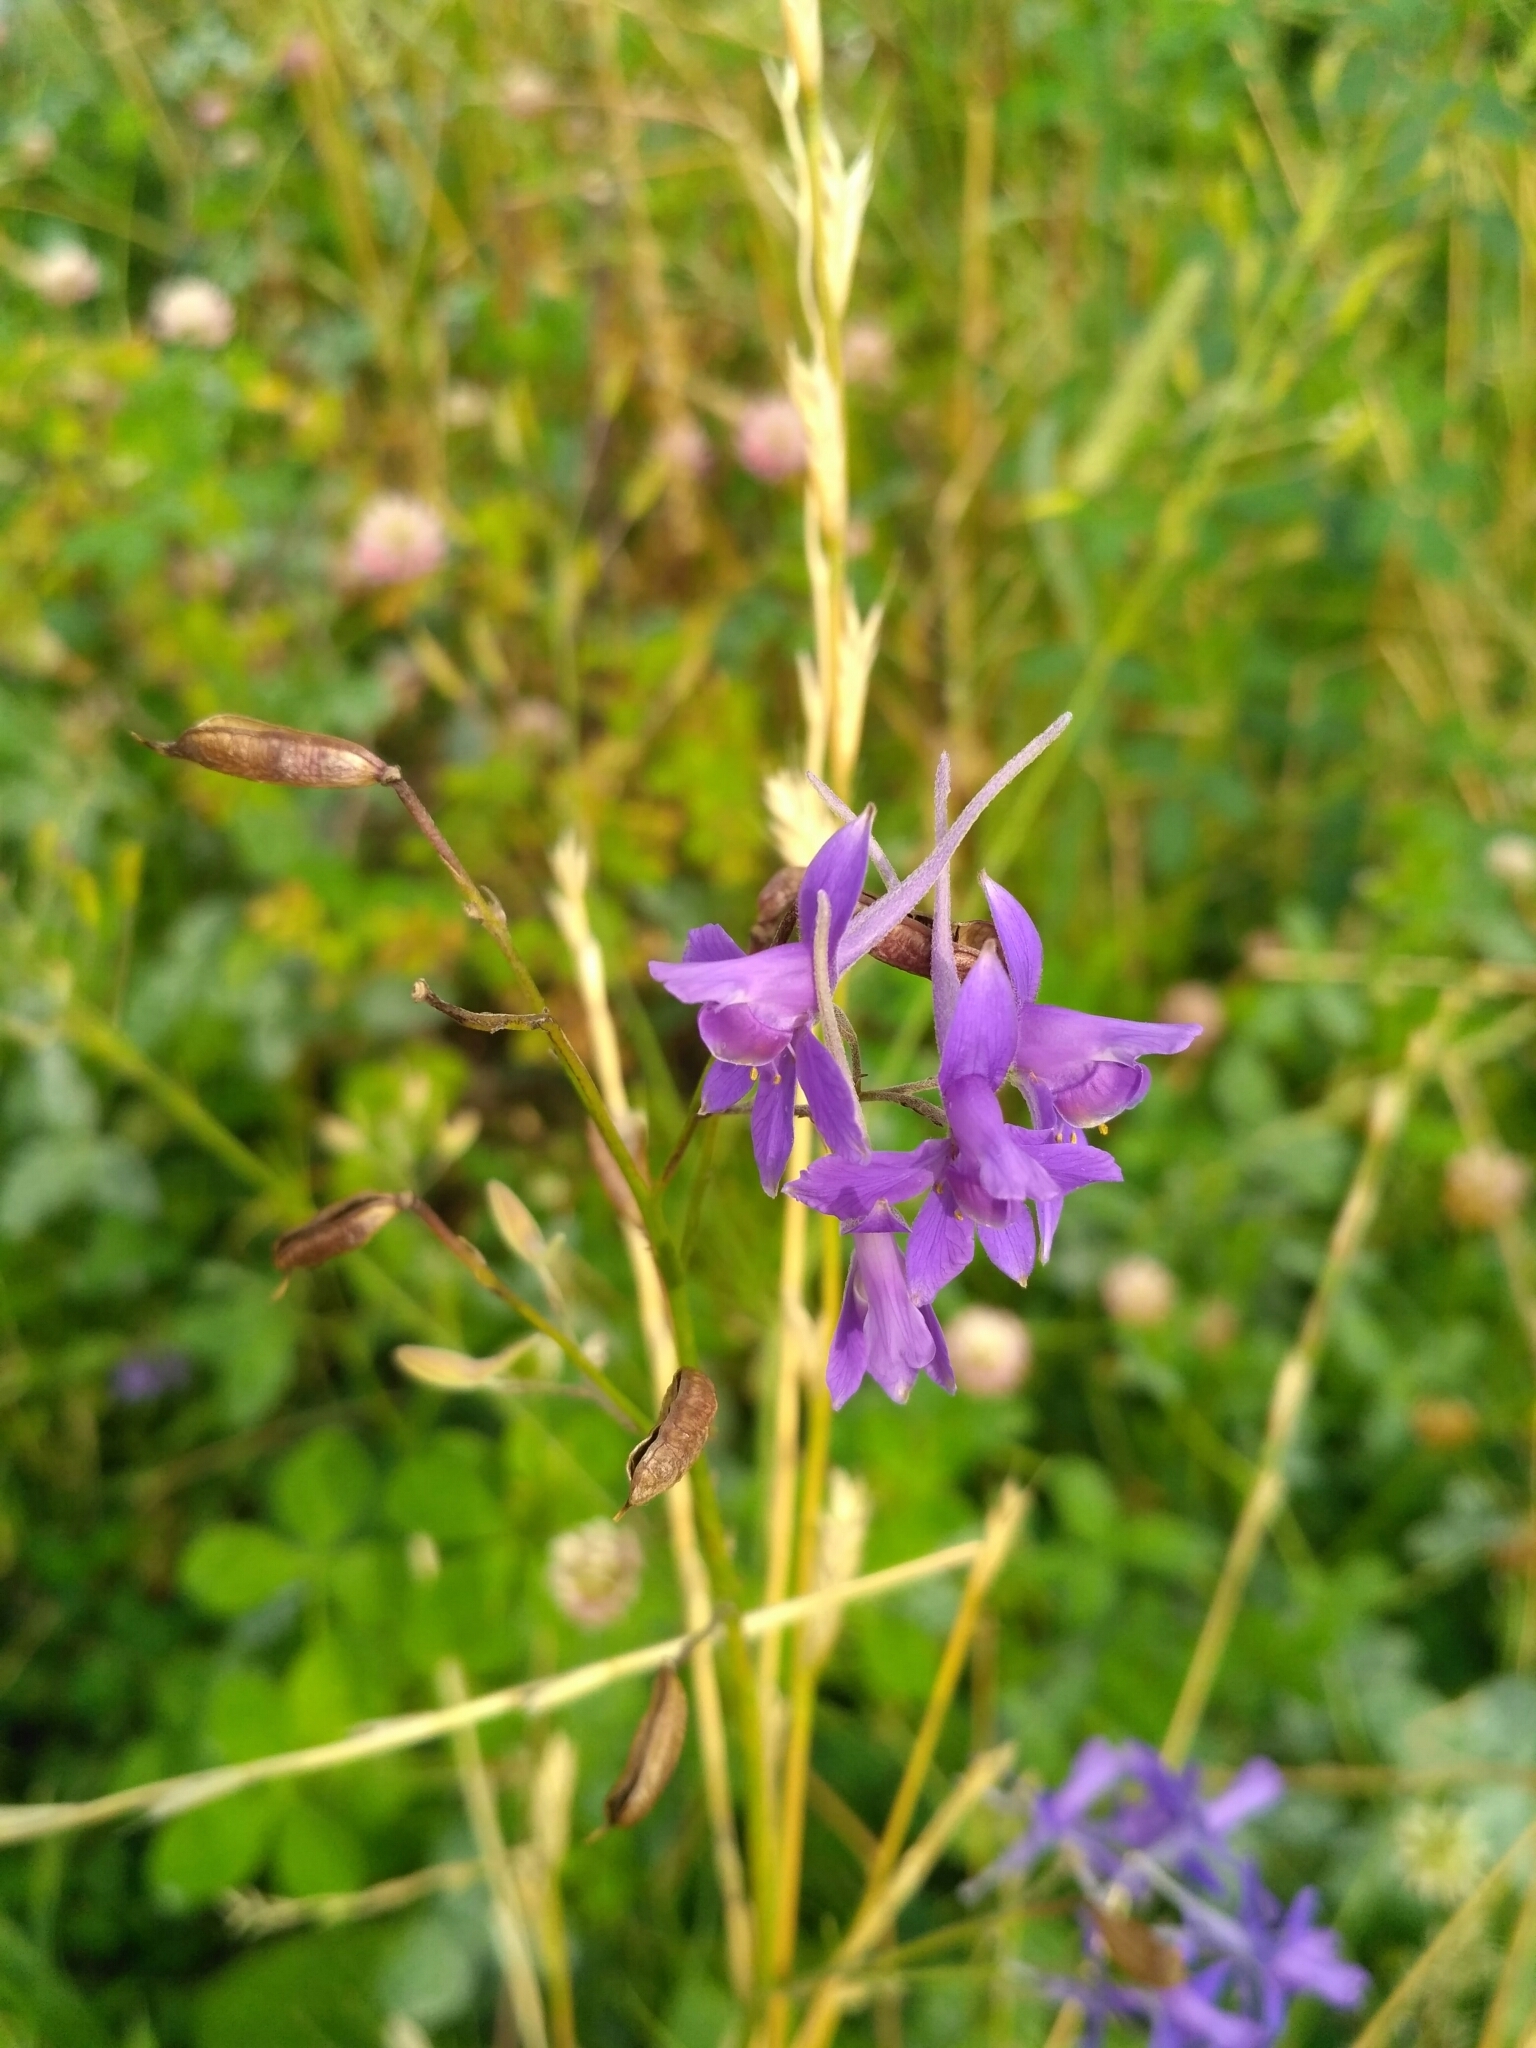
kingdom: Plantae
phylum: Tracheophyta
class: Magnoliopsida
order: Ranunculales
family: Ranunculaceae
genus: Delphinium
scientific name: Delphinium consolida
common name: Branching larkspur
